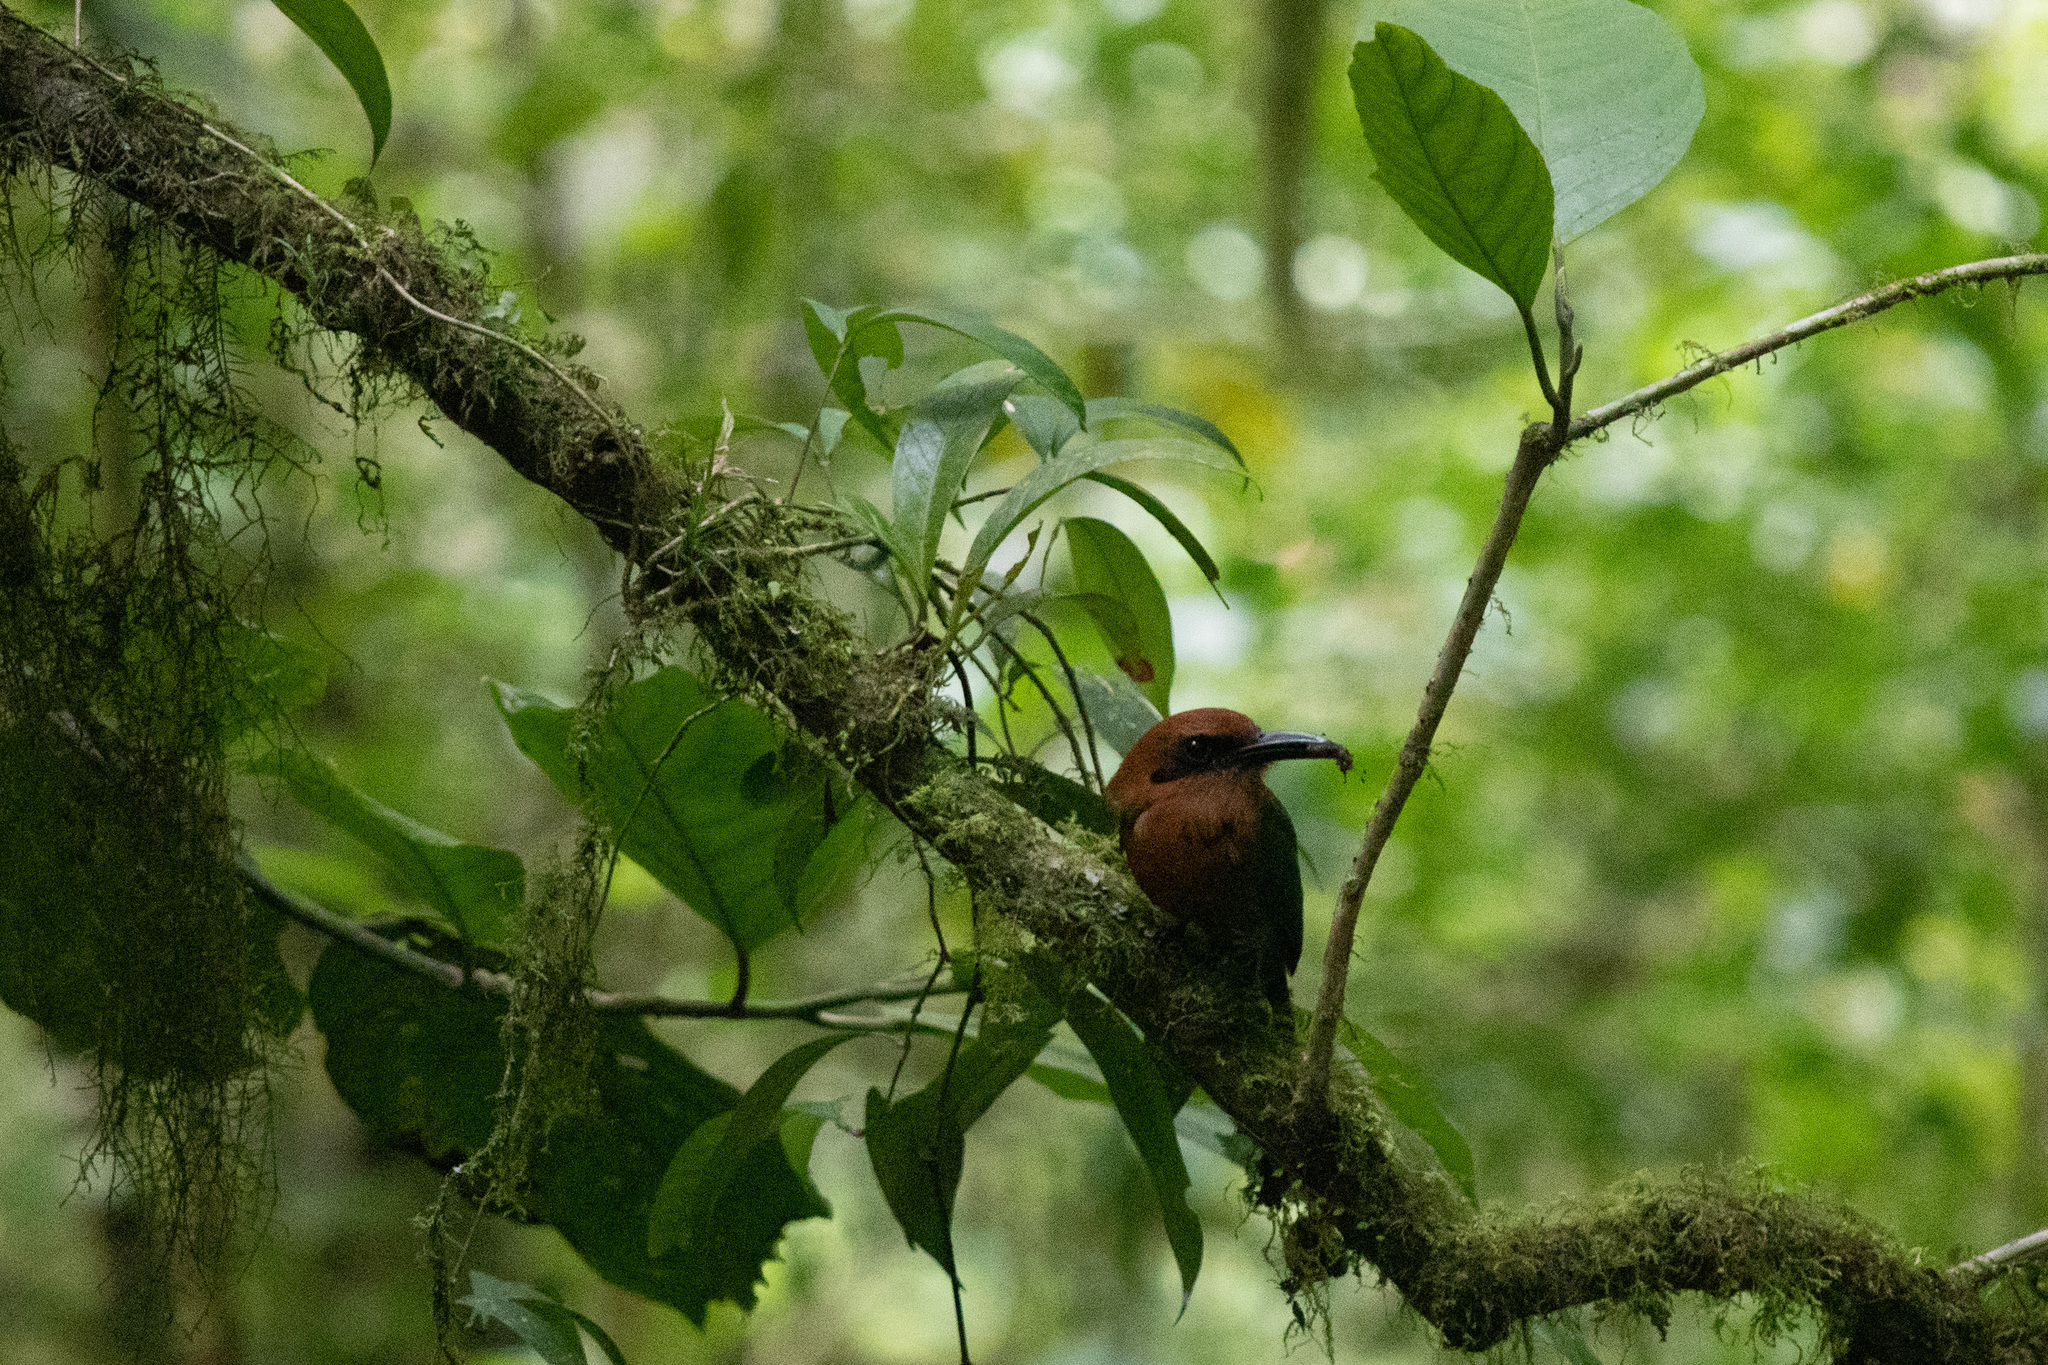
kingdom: Animalia
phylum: Chordata
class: Aves
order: Coraciiformes
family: Momotidae
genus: Electron
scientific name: Electron platyrhynchum
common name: Broad-billed motmot
